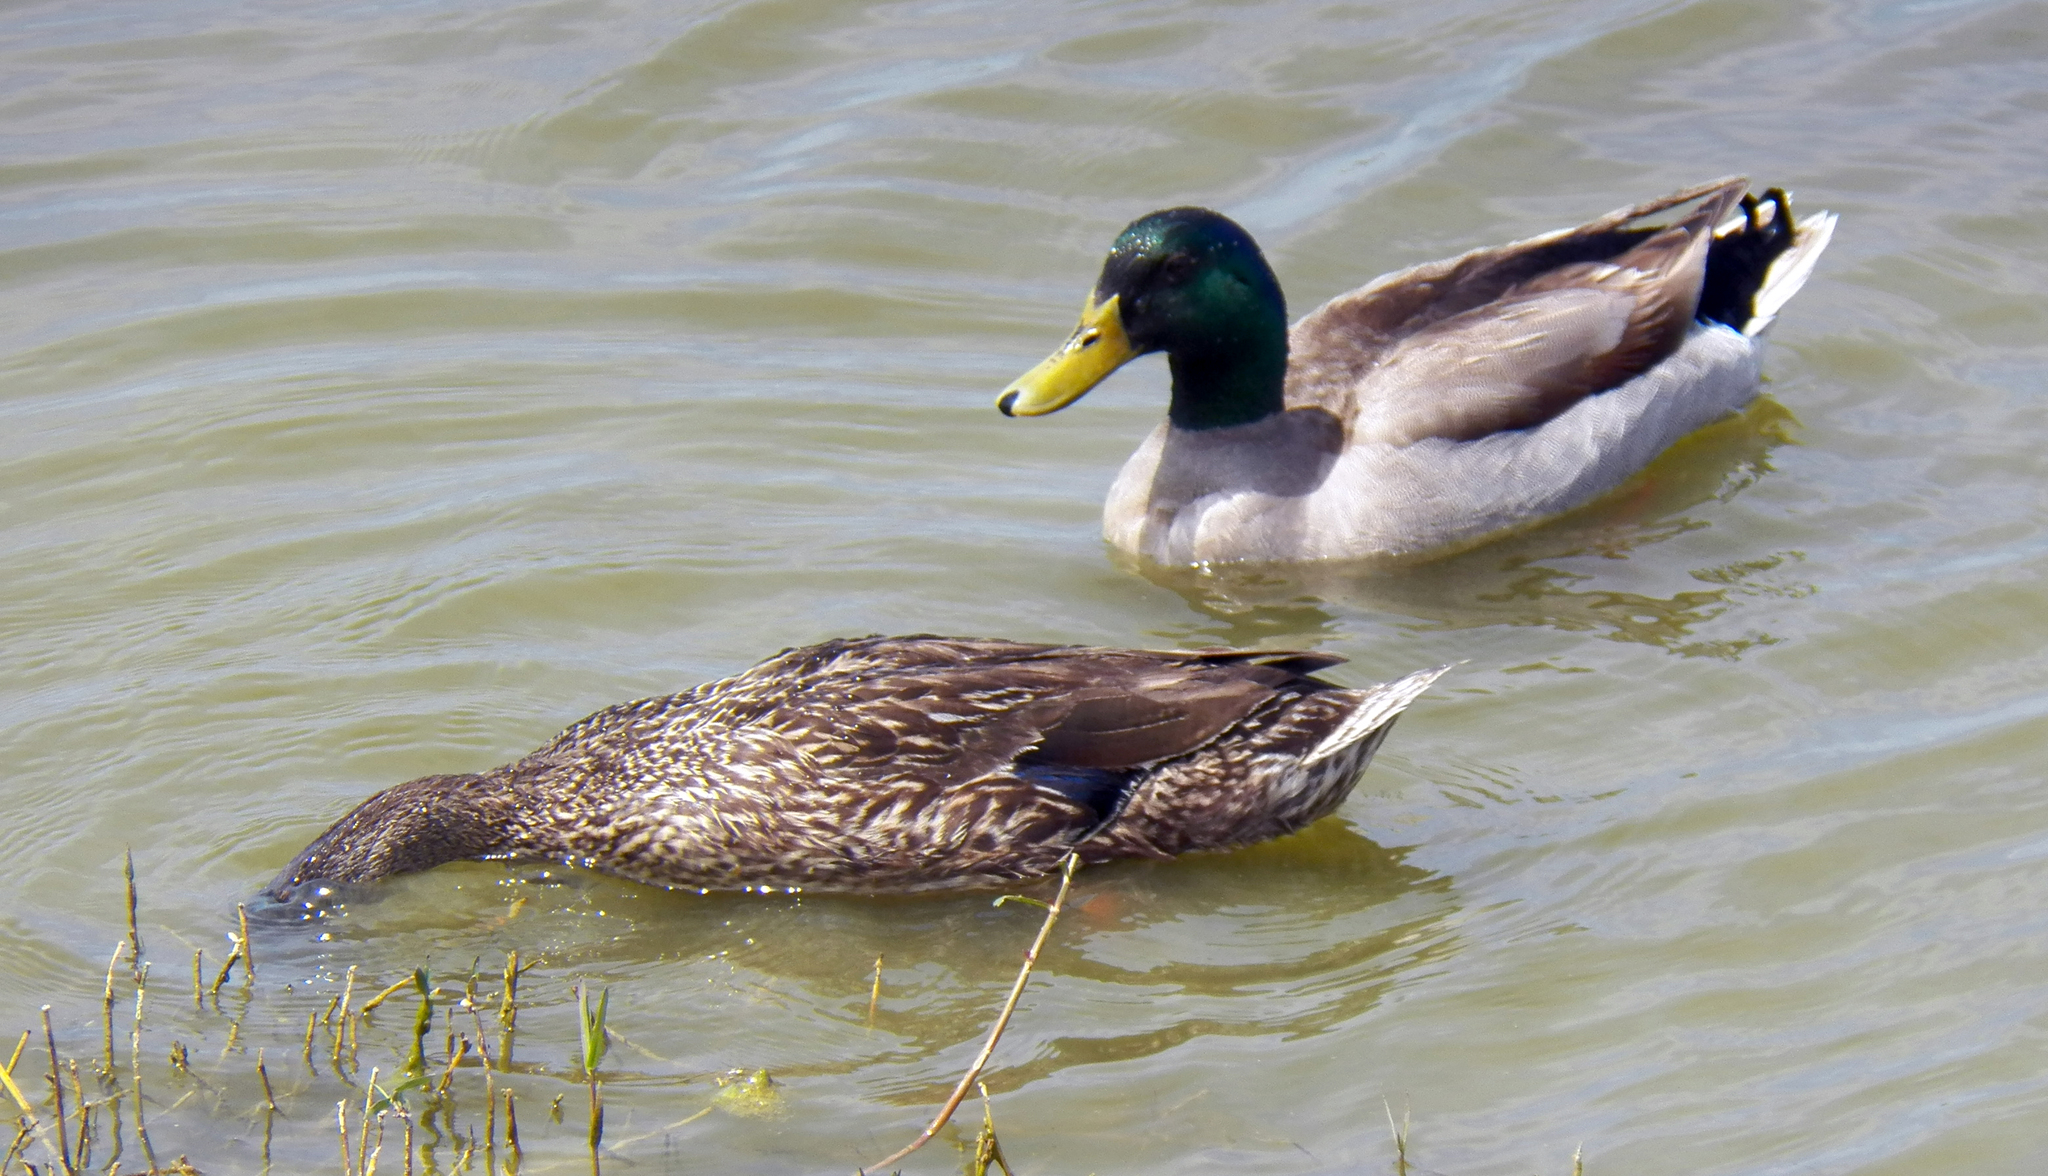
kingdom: Animalia
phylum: Chordata
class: Aves
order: Anseriformes
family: Anatidae
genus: Anas
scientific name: Anas platyrhynchos
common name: Mallard
